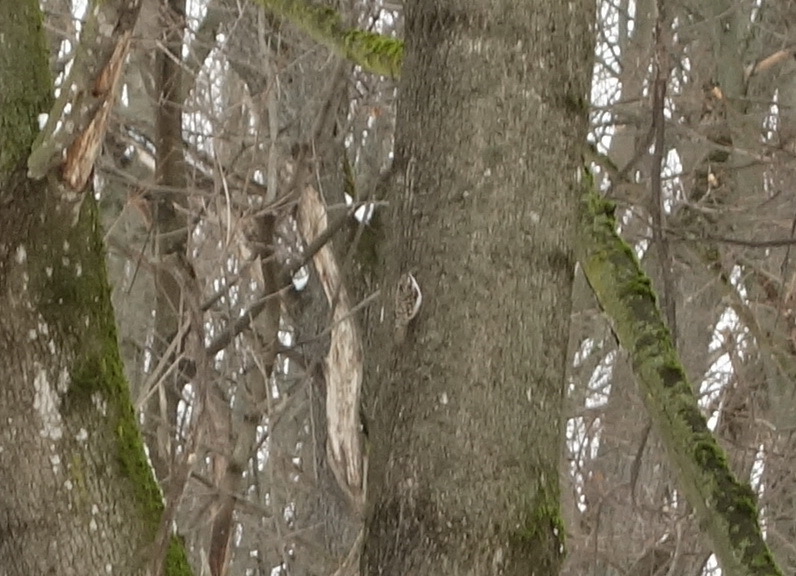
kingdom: Animalia
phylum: Chordata
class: Aves
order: Passeriformes
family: Certhiidae
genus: Certhia
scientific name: Certhia familiaris
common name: Eurasian treecreeper
